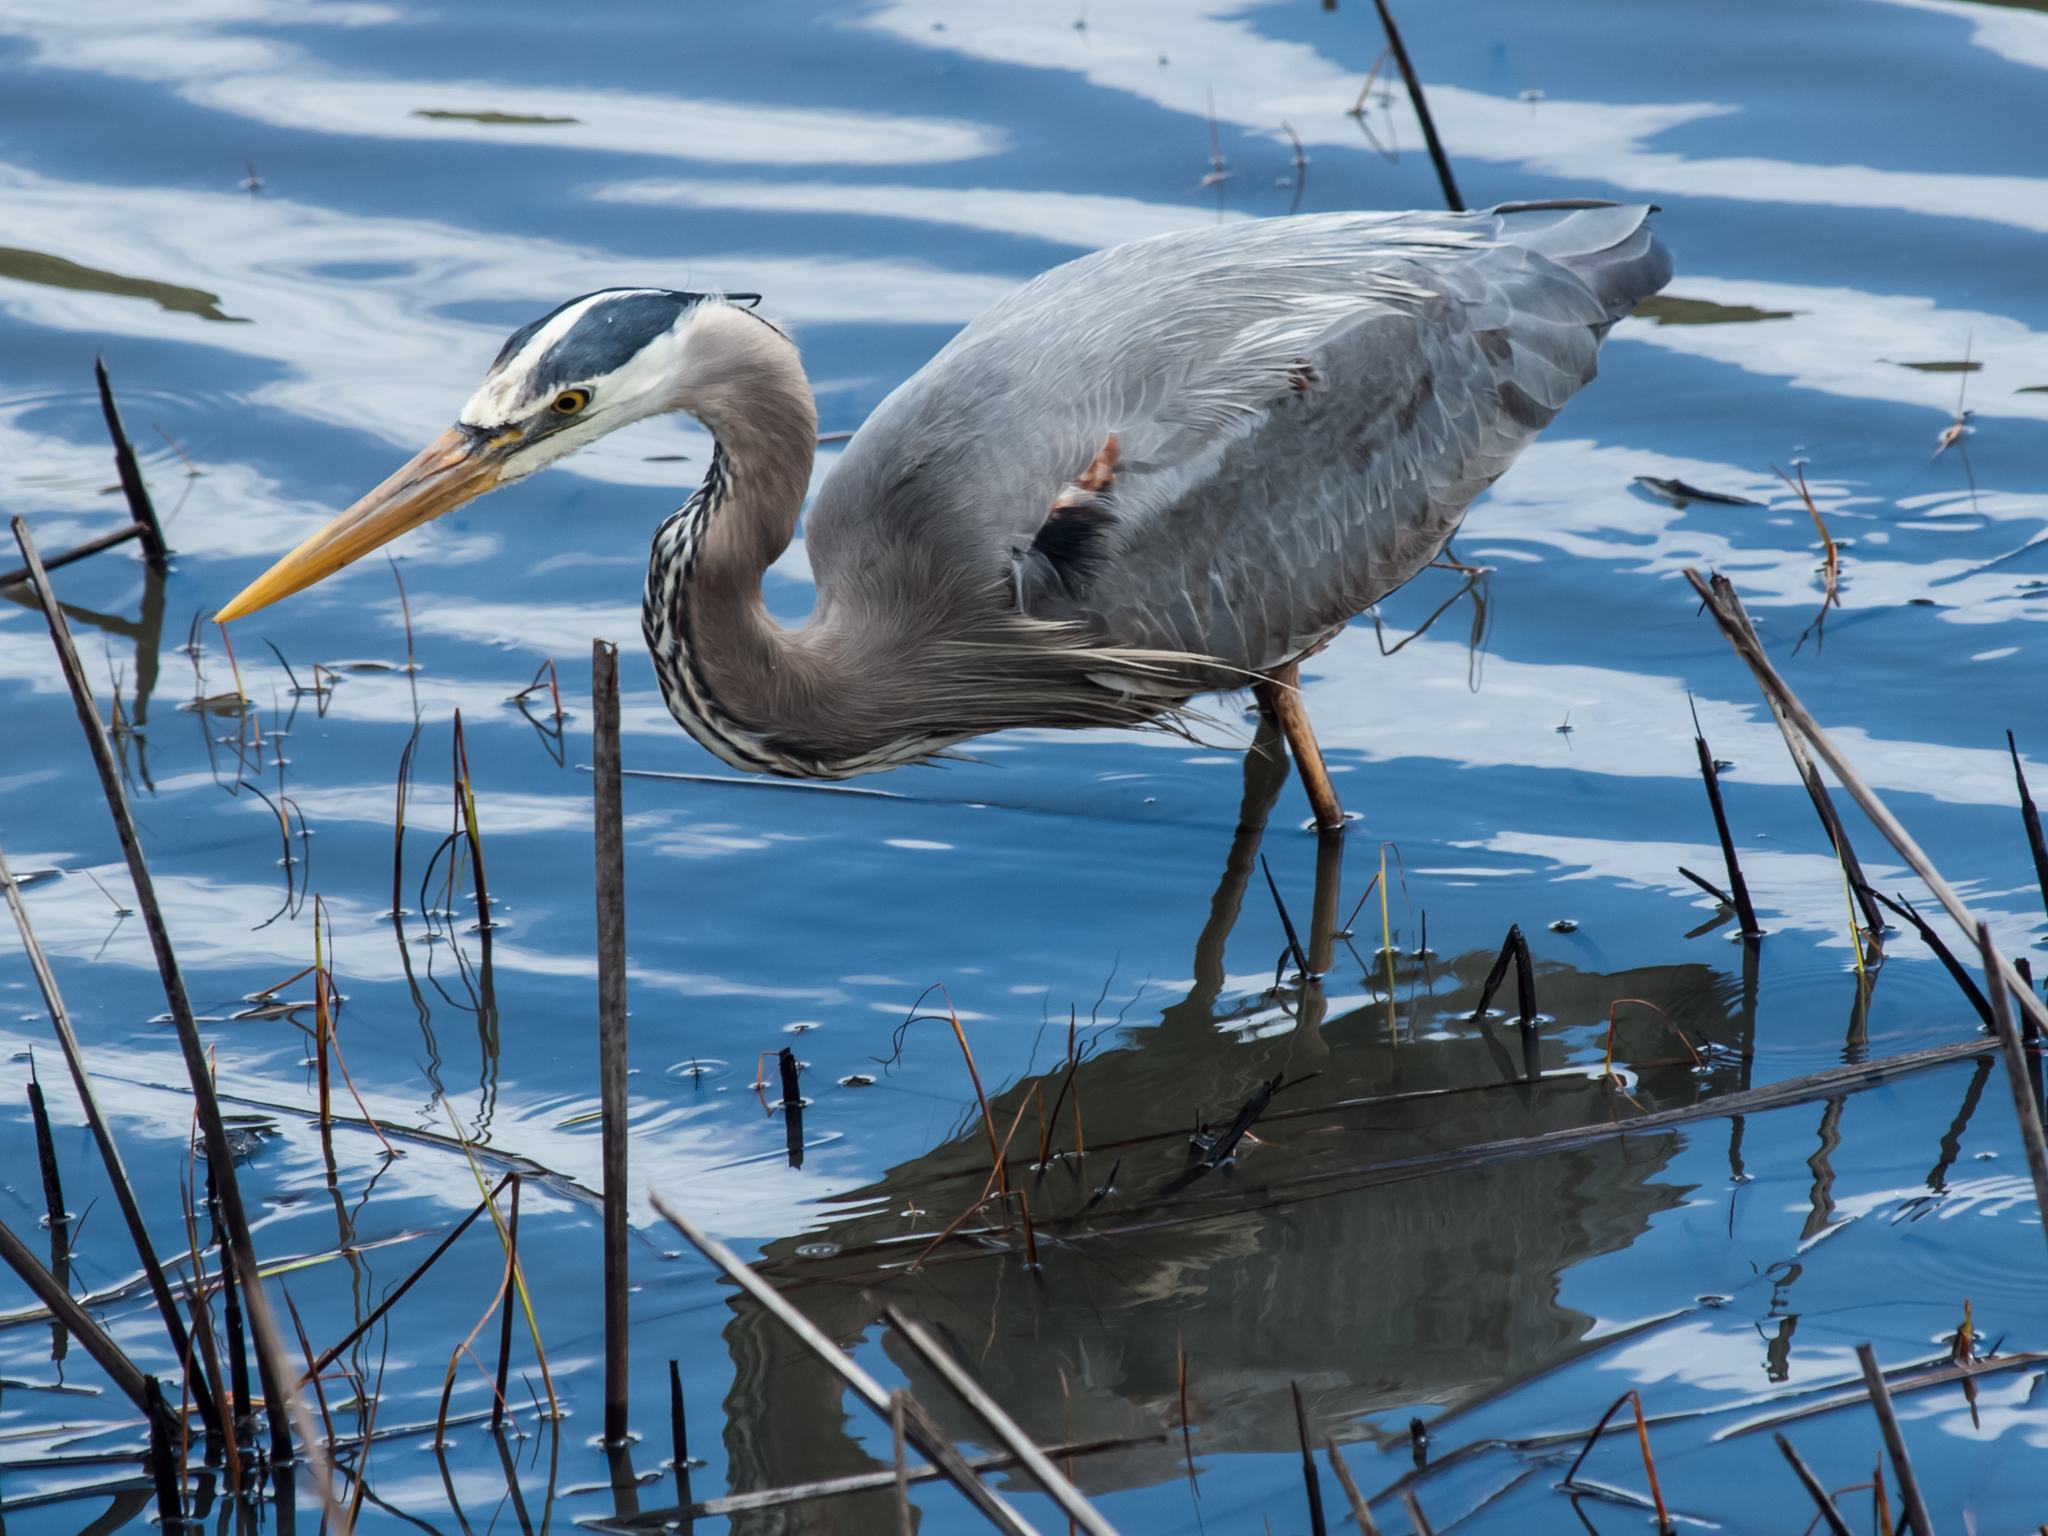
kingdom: Animalia
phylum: Chordata
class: Aves
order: Pelecaniformes
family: Ardeidae
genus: Ardea
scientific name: Ardea herodias
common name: Great blue heron
